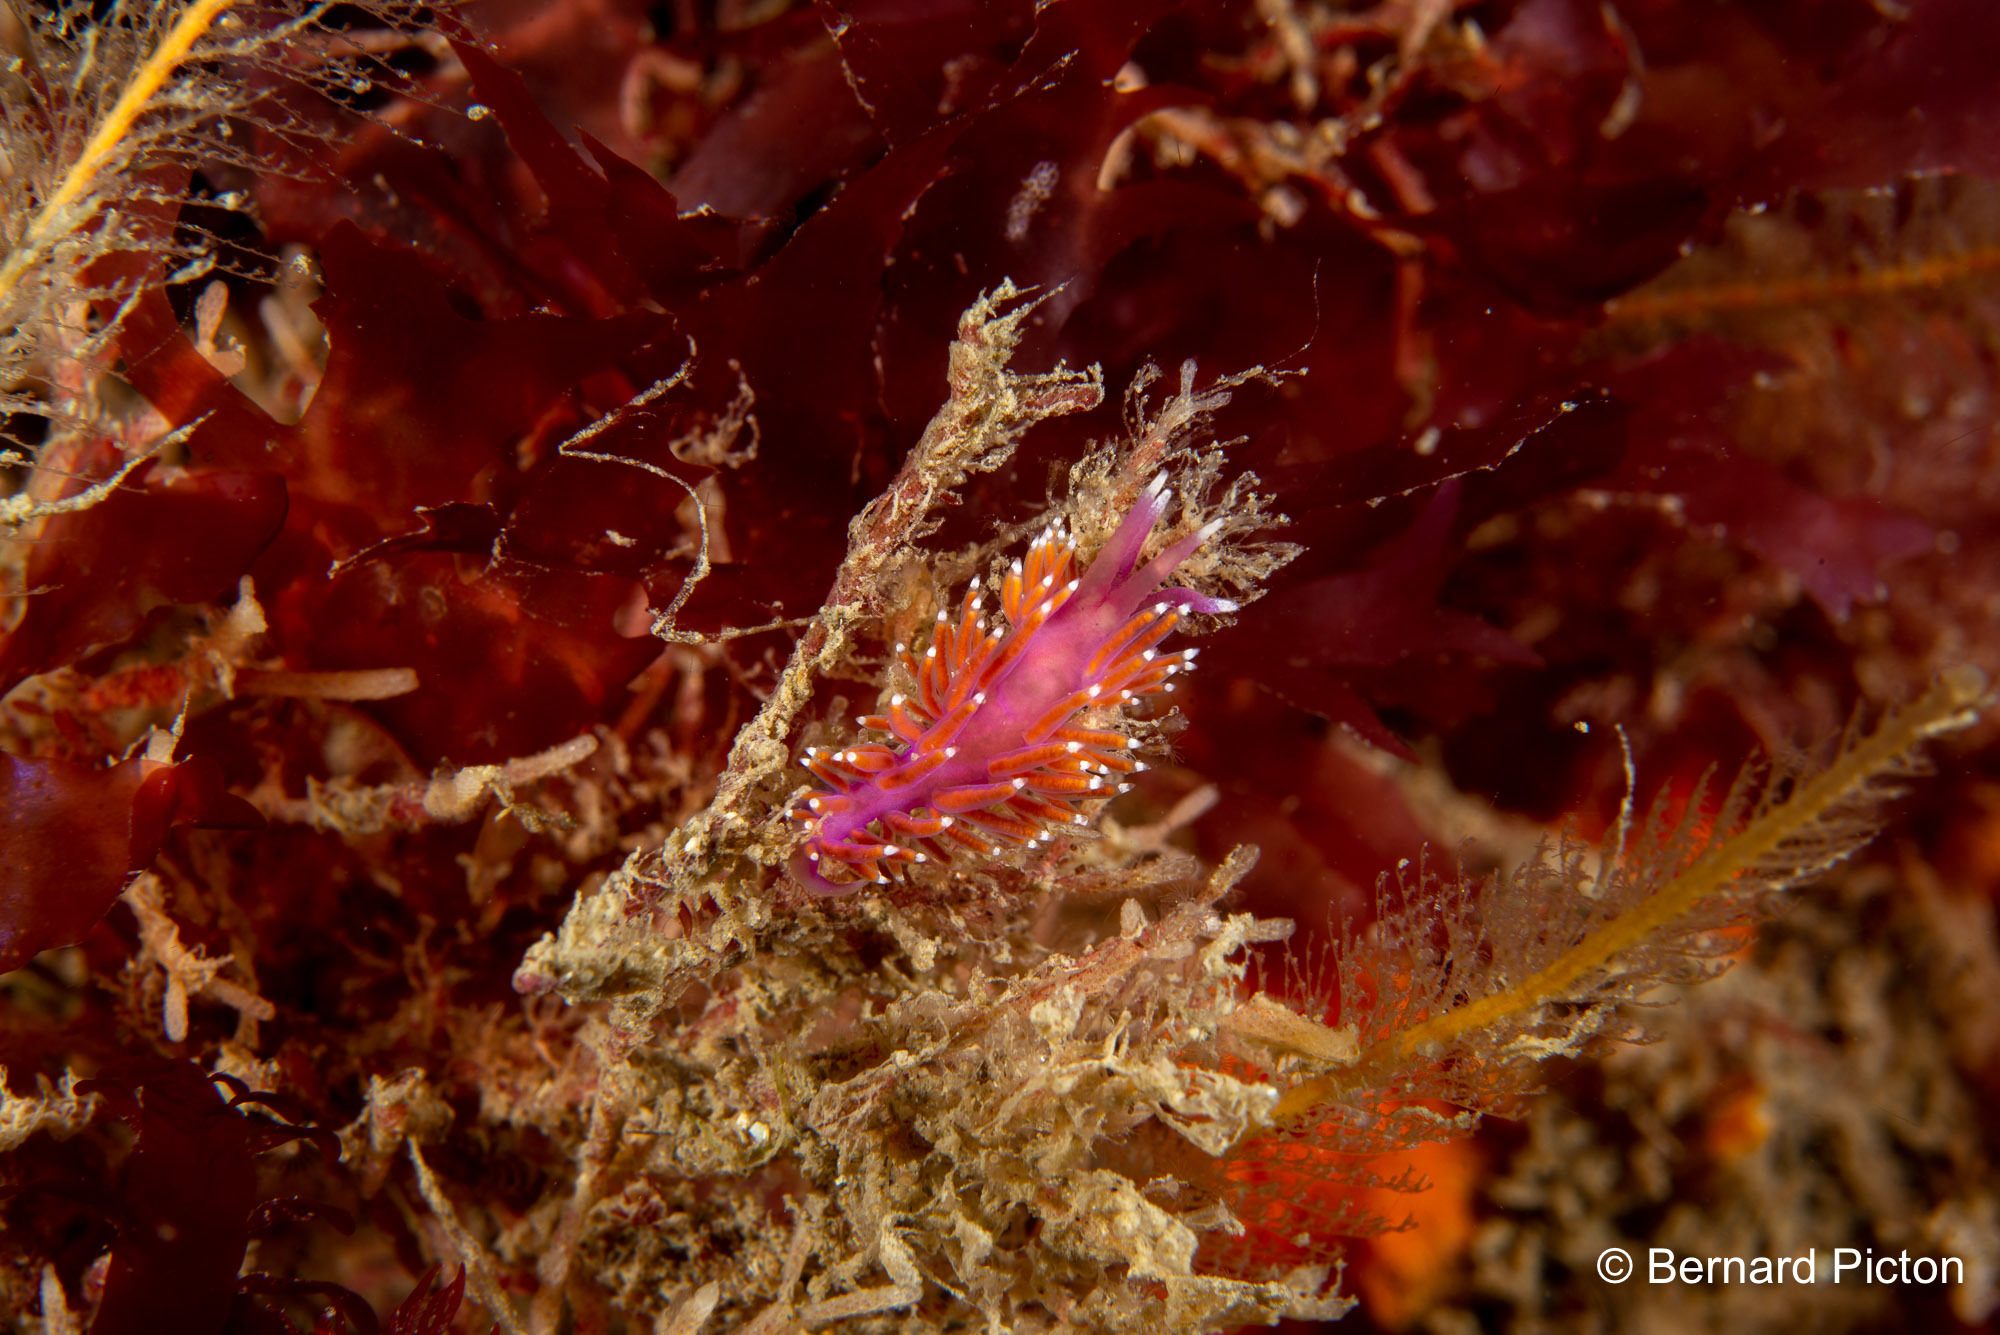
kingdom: Animalia
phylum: Mollusca
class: Gastropoda
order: Nudibranchia
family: Flabellinidae
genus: Edmundsella
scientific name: Edmundsella pedata
